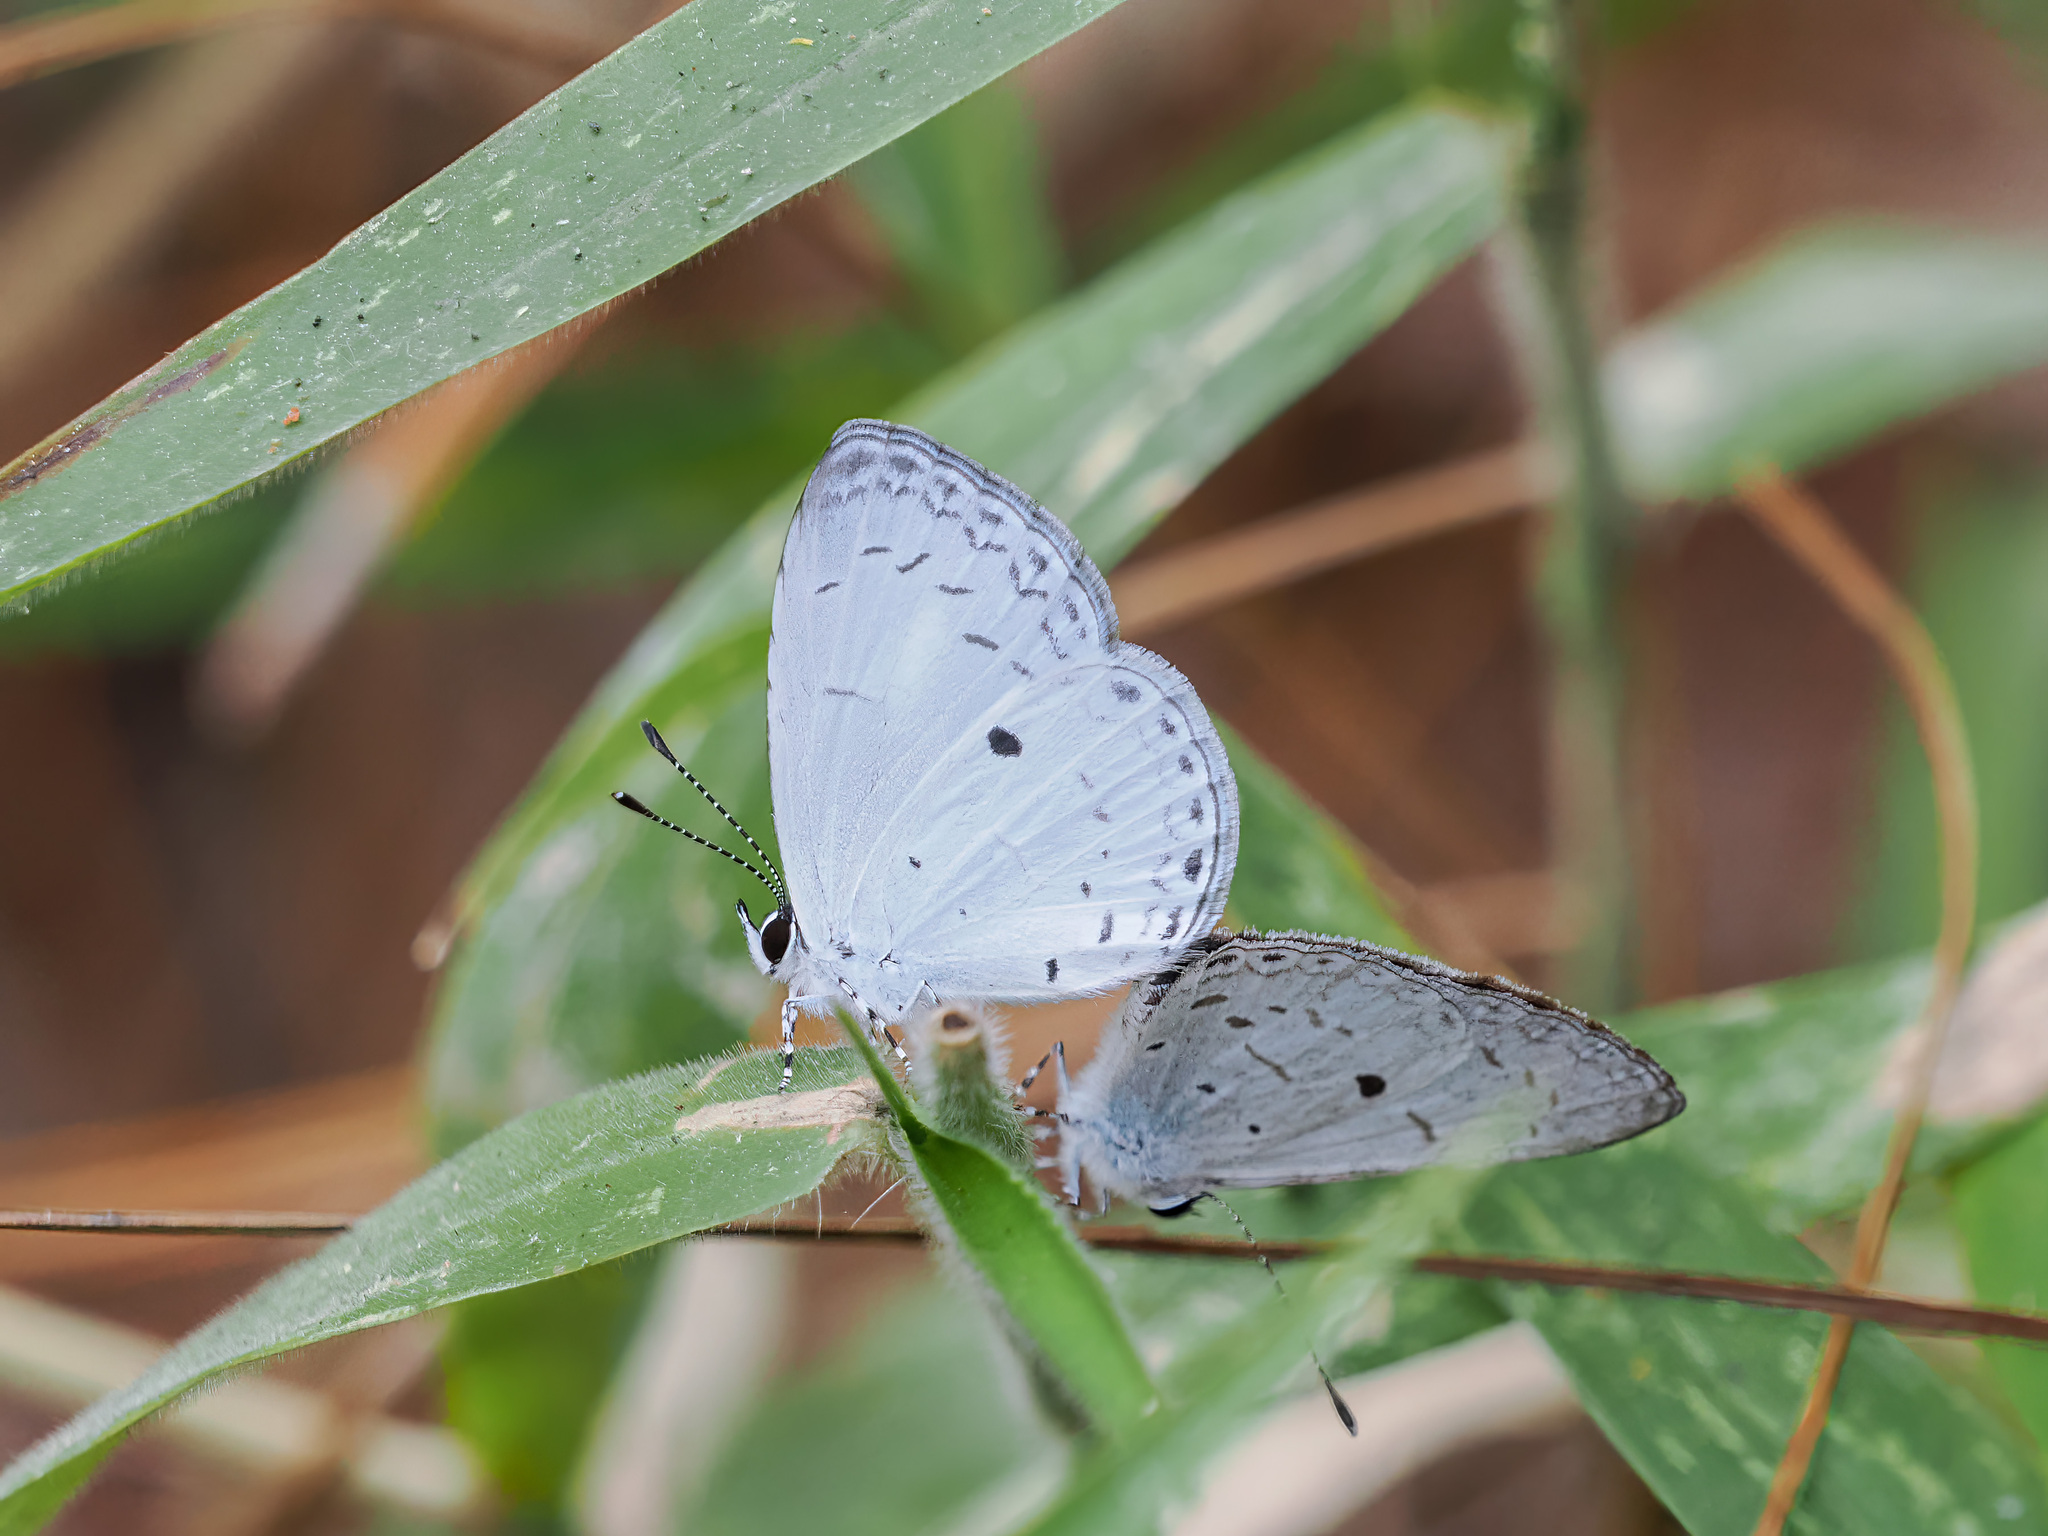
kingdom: Animalia
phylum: Arthropoda
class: Insecta
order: Lepidoptera
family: Lycaenidae
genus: Callenya
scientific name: Callenya melaena
